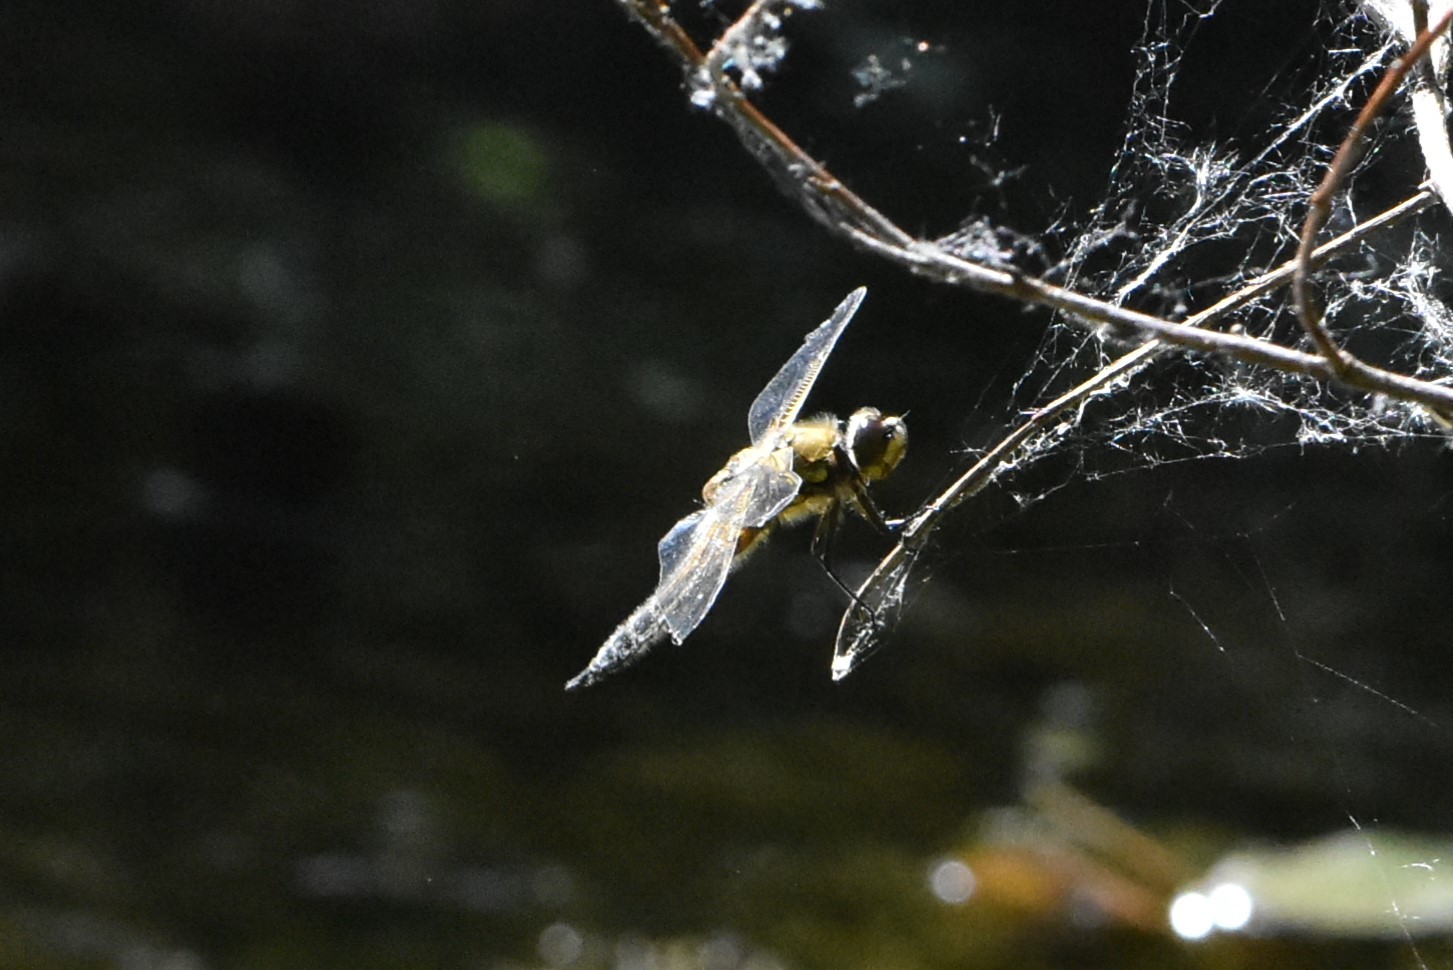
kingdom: Animalia
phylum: Arthropoda
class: Insecta
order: Odonata
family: Libellulidae
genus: Libellula
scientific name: Libellula quadrimaculata
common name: Four-spotted chaser
